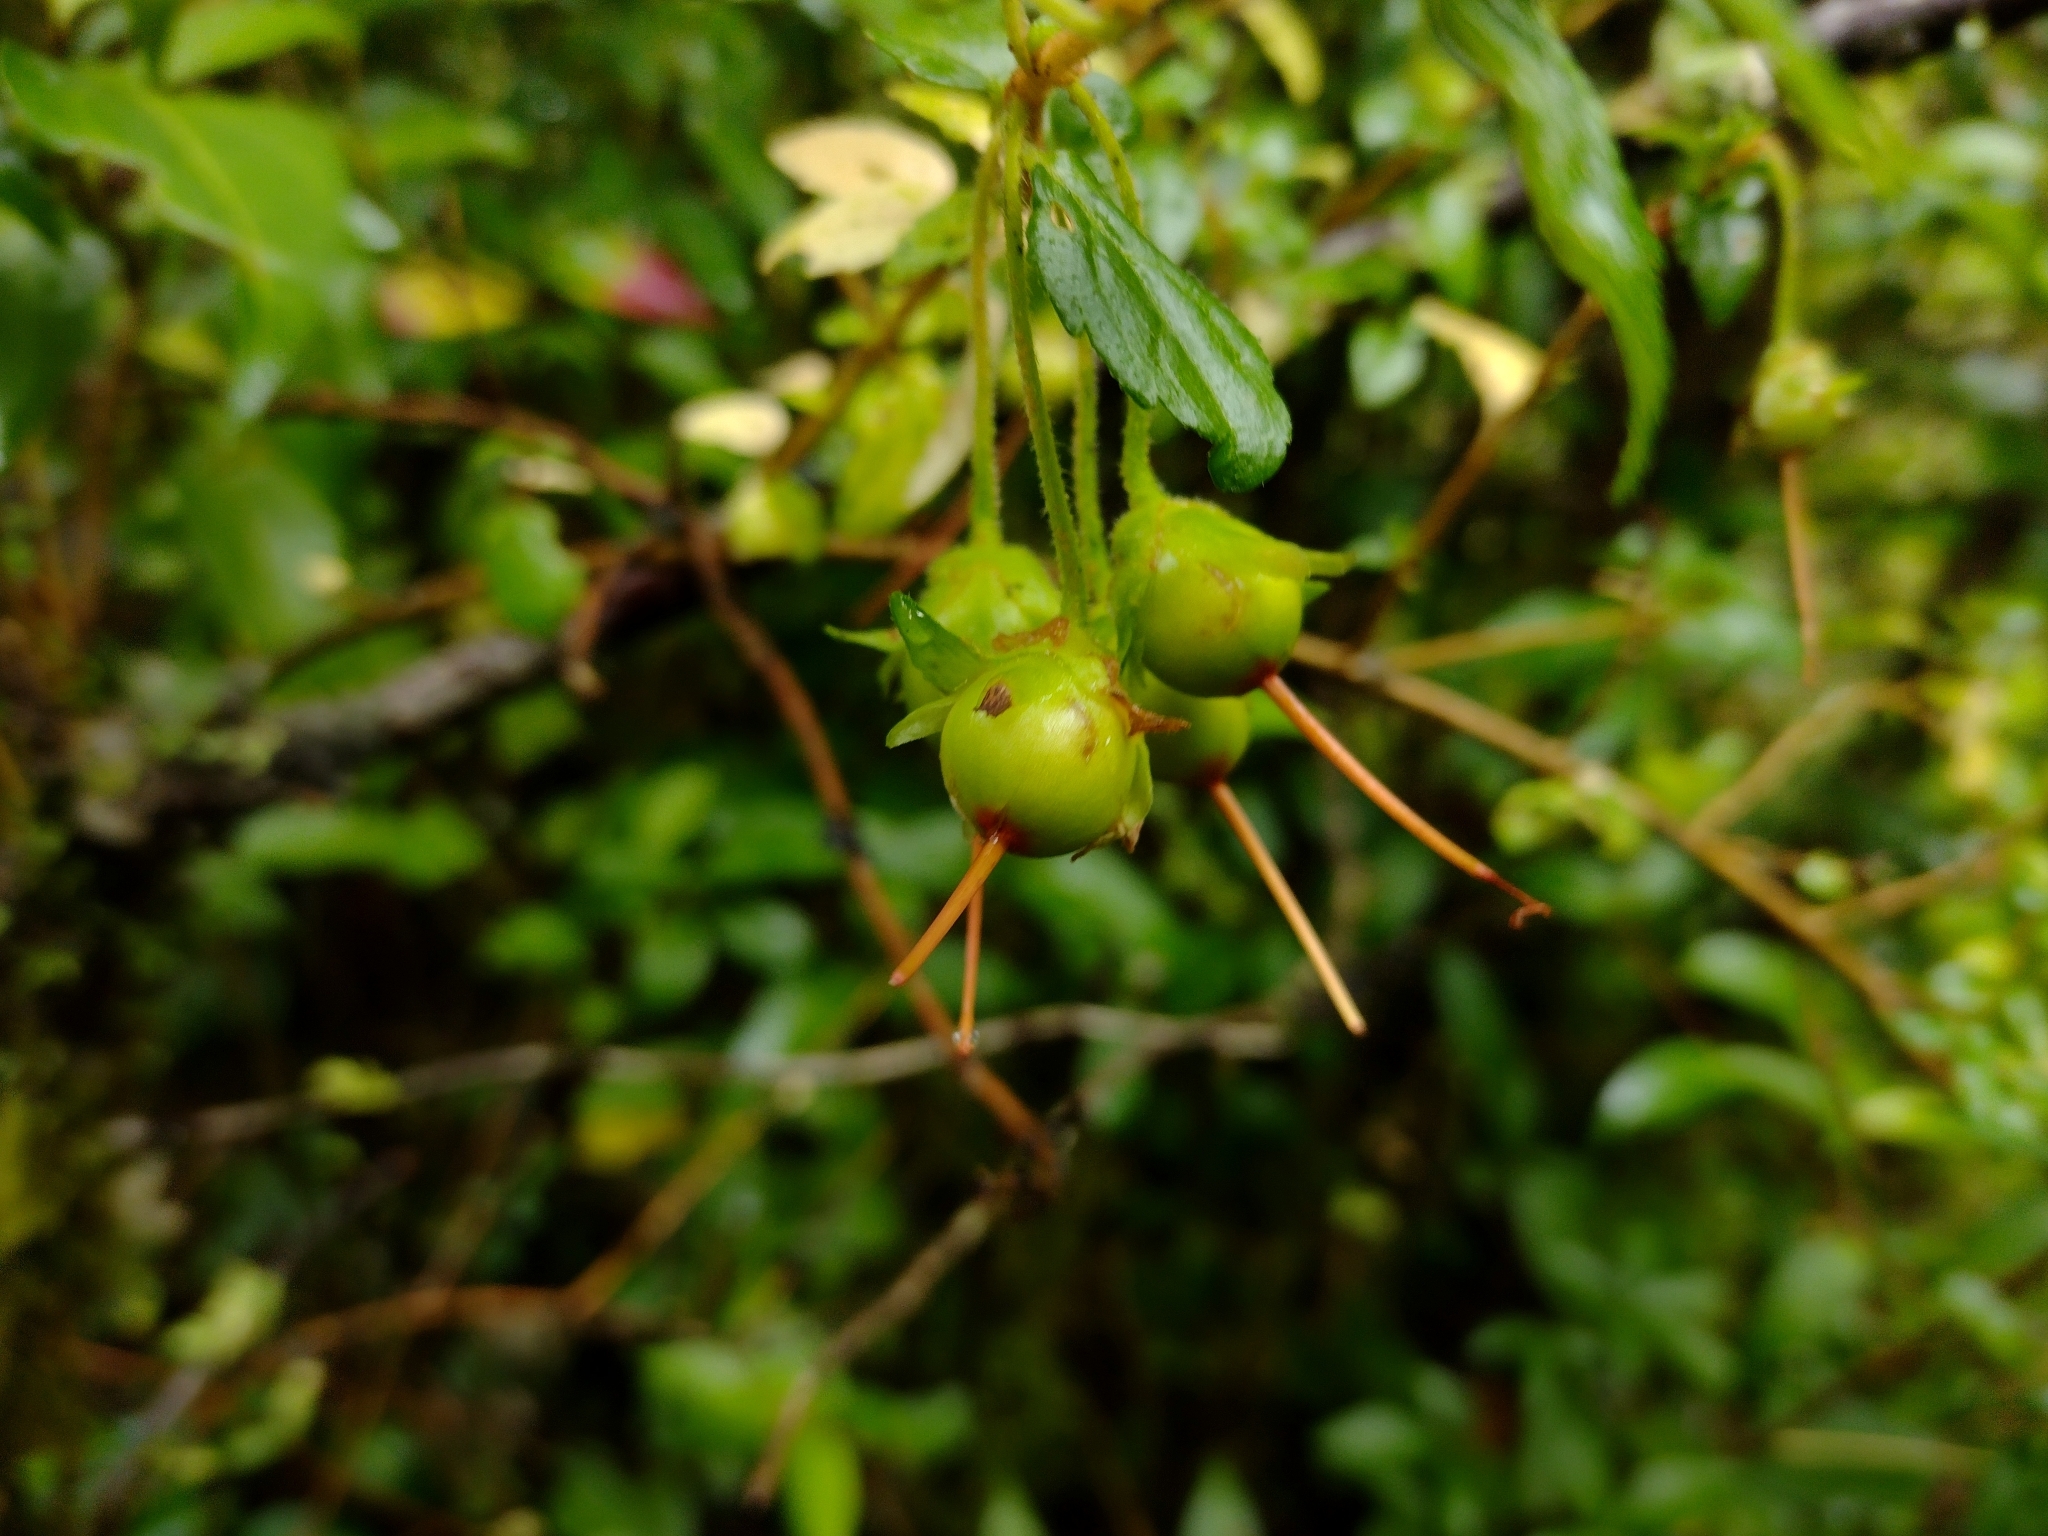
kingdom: Plantae
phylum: Tracheophyta
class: Magnoliopsida
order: Lamiales
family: Gesneriaceae
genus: Mitraria
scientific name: Mitraria coccinea
